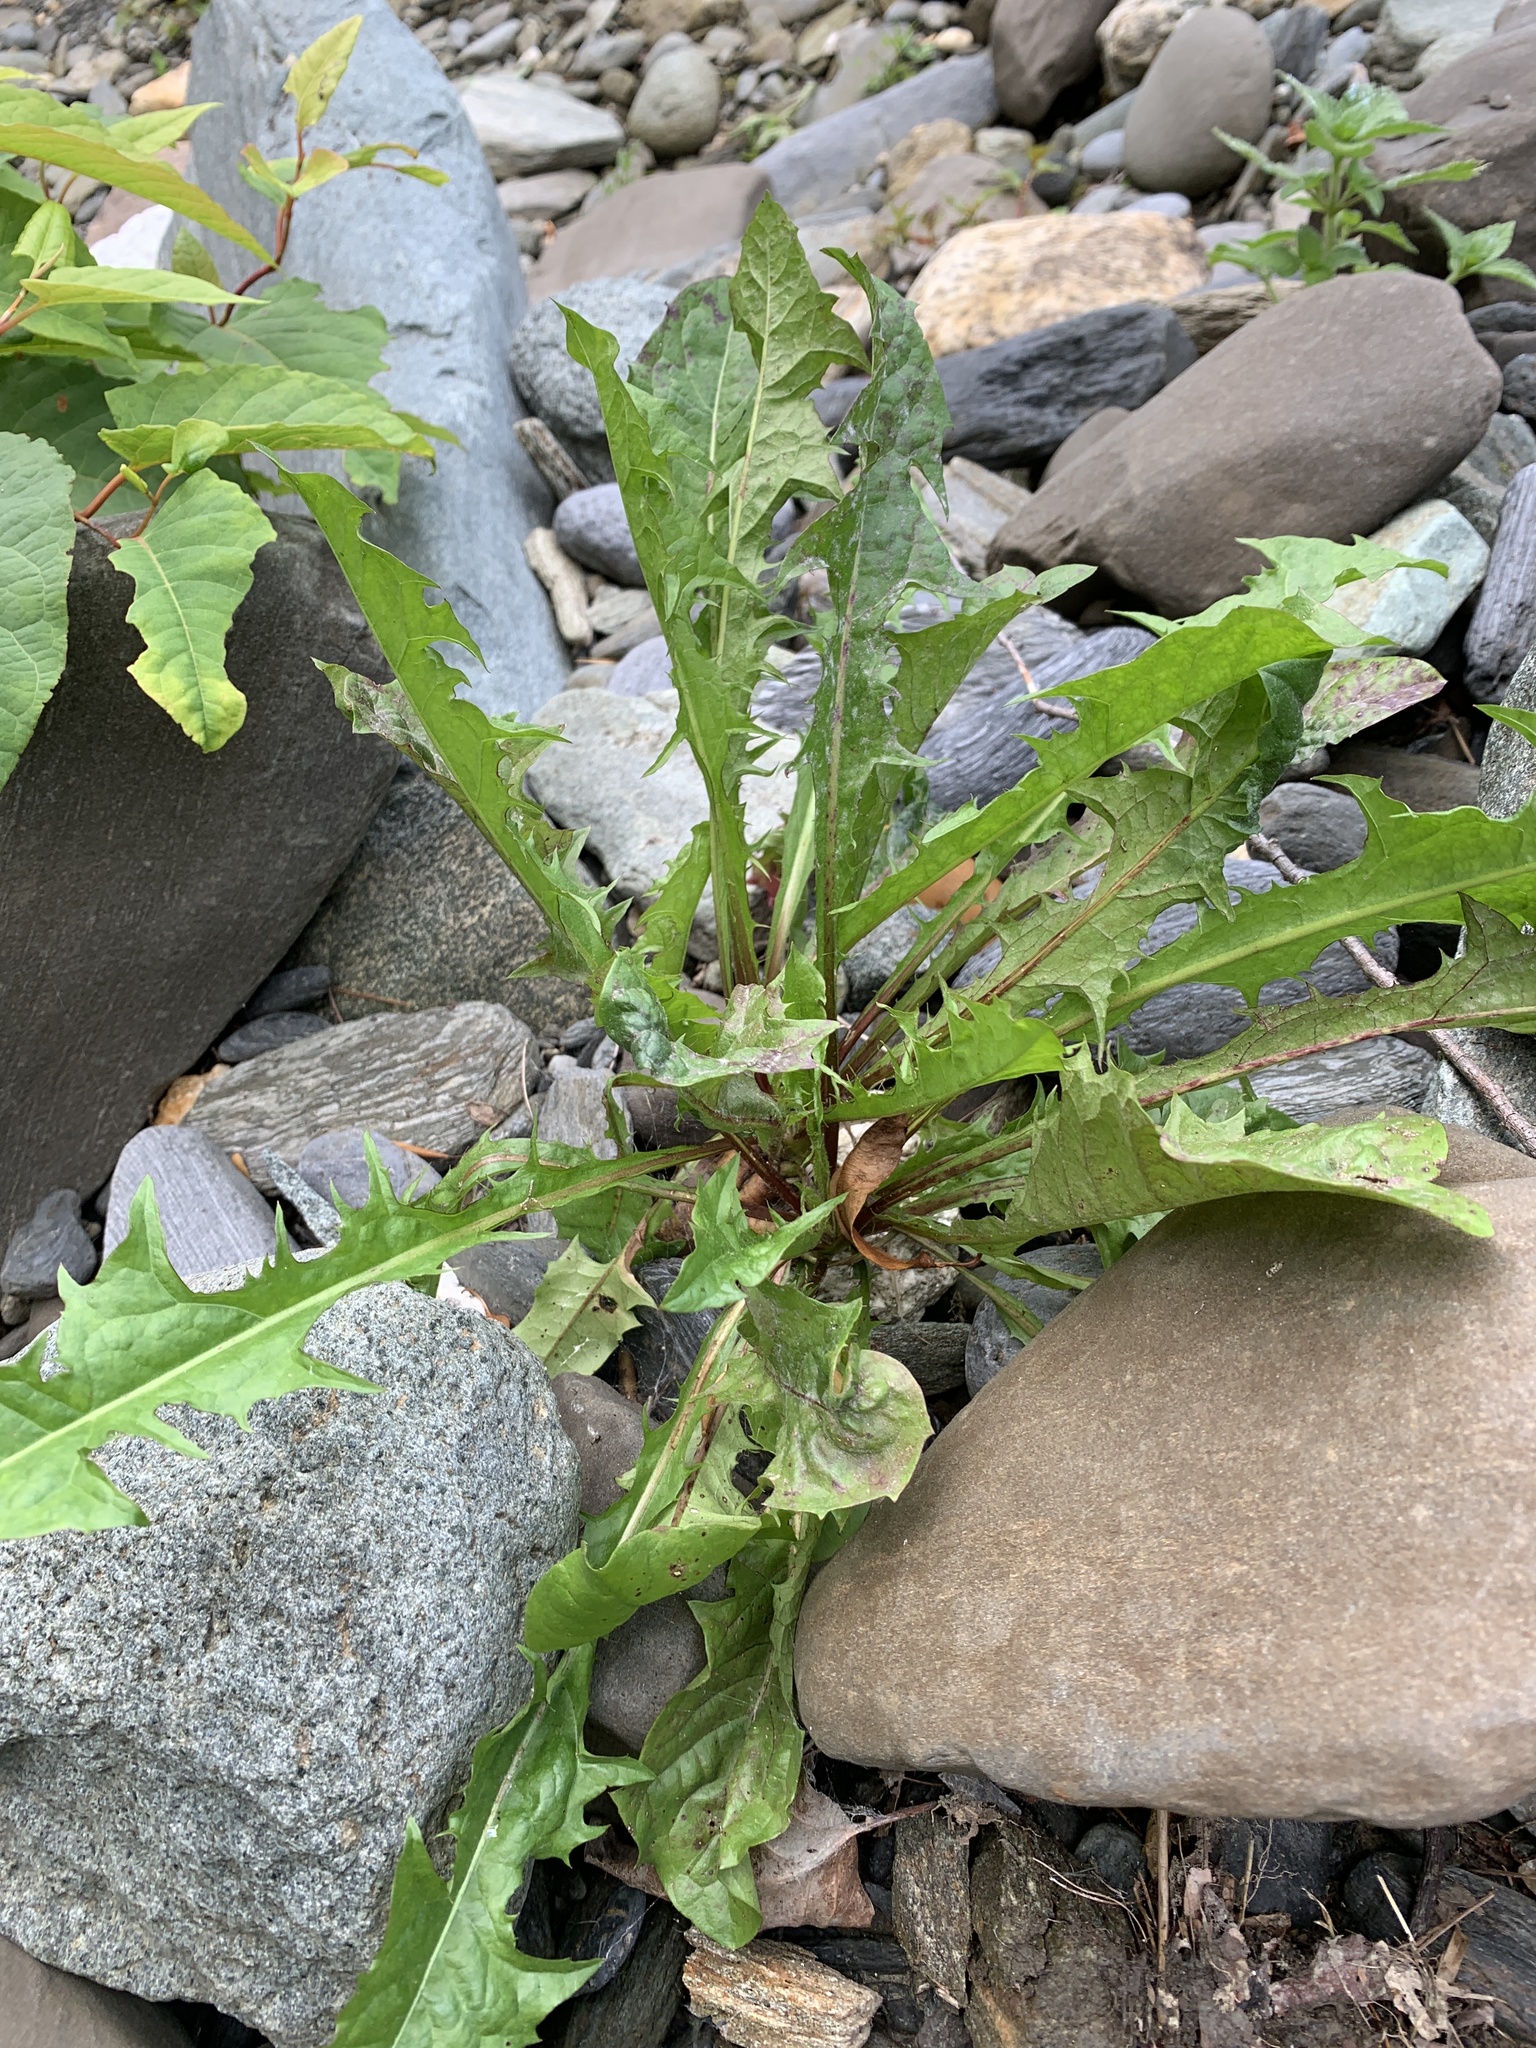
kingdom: Plantae
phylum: Tracheophyta
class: Magnoliopsida
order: Asterales
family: Asteraceae
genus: Taraxacum
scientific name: Taraxacum
